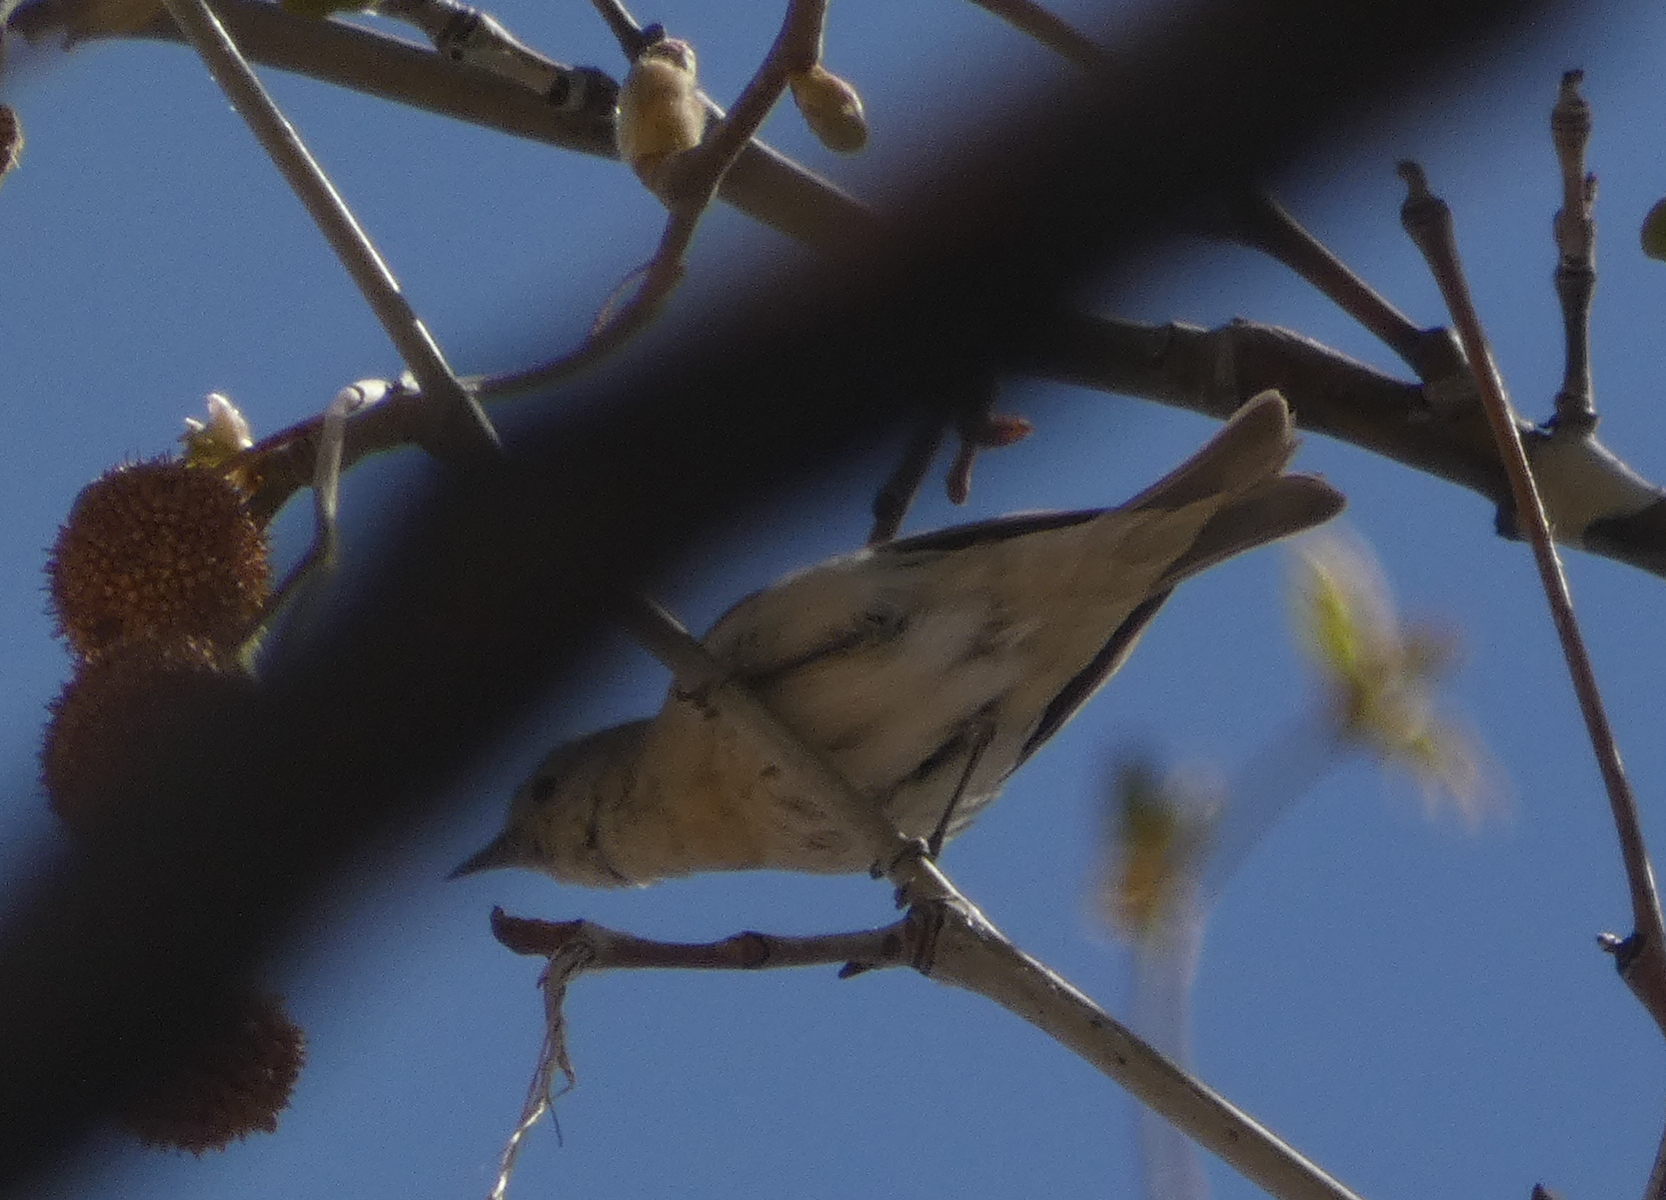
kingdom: Animalia
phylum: Chordata
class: Aves
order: Passeriformes
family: Parulidae
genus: Leiothlypis
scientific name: Leiothlypis luciae
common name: Lucy's warbler
